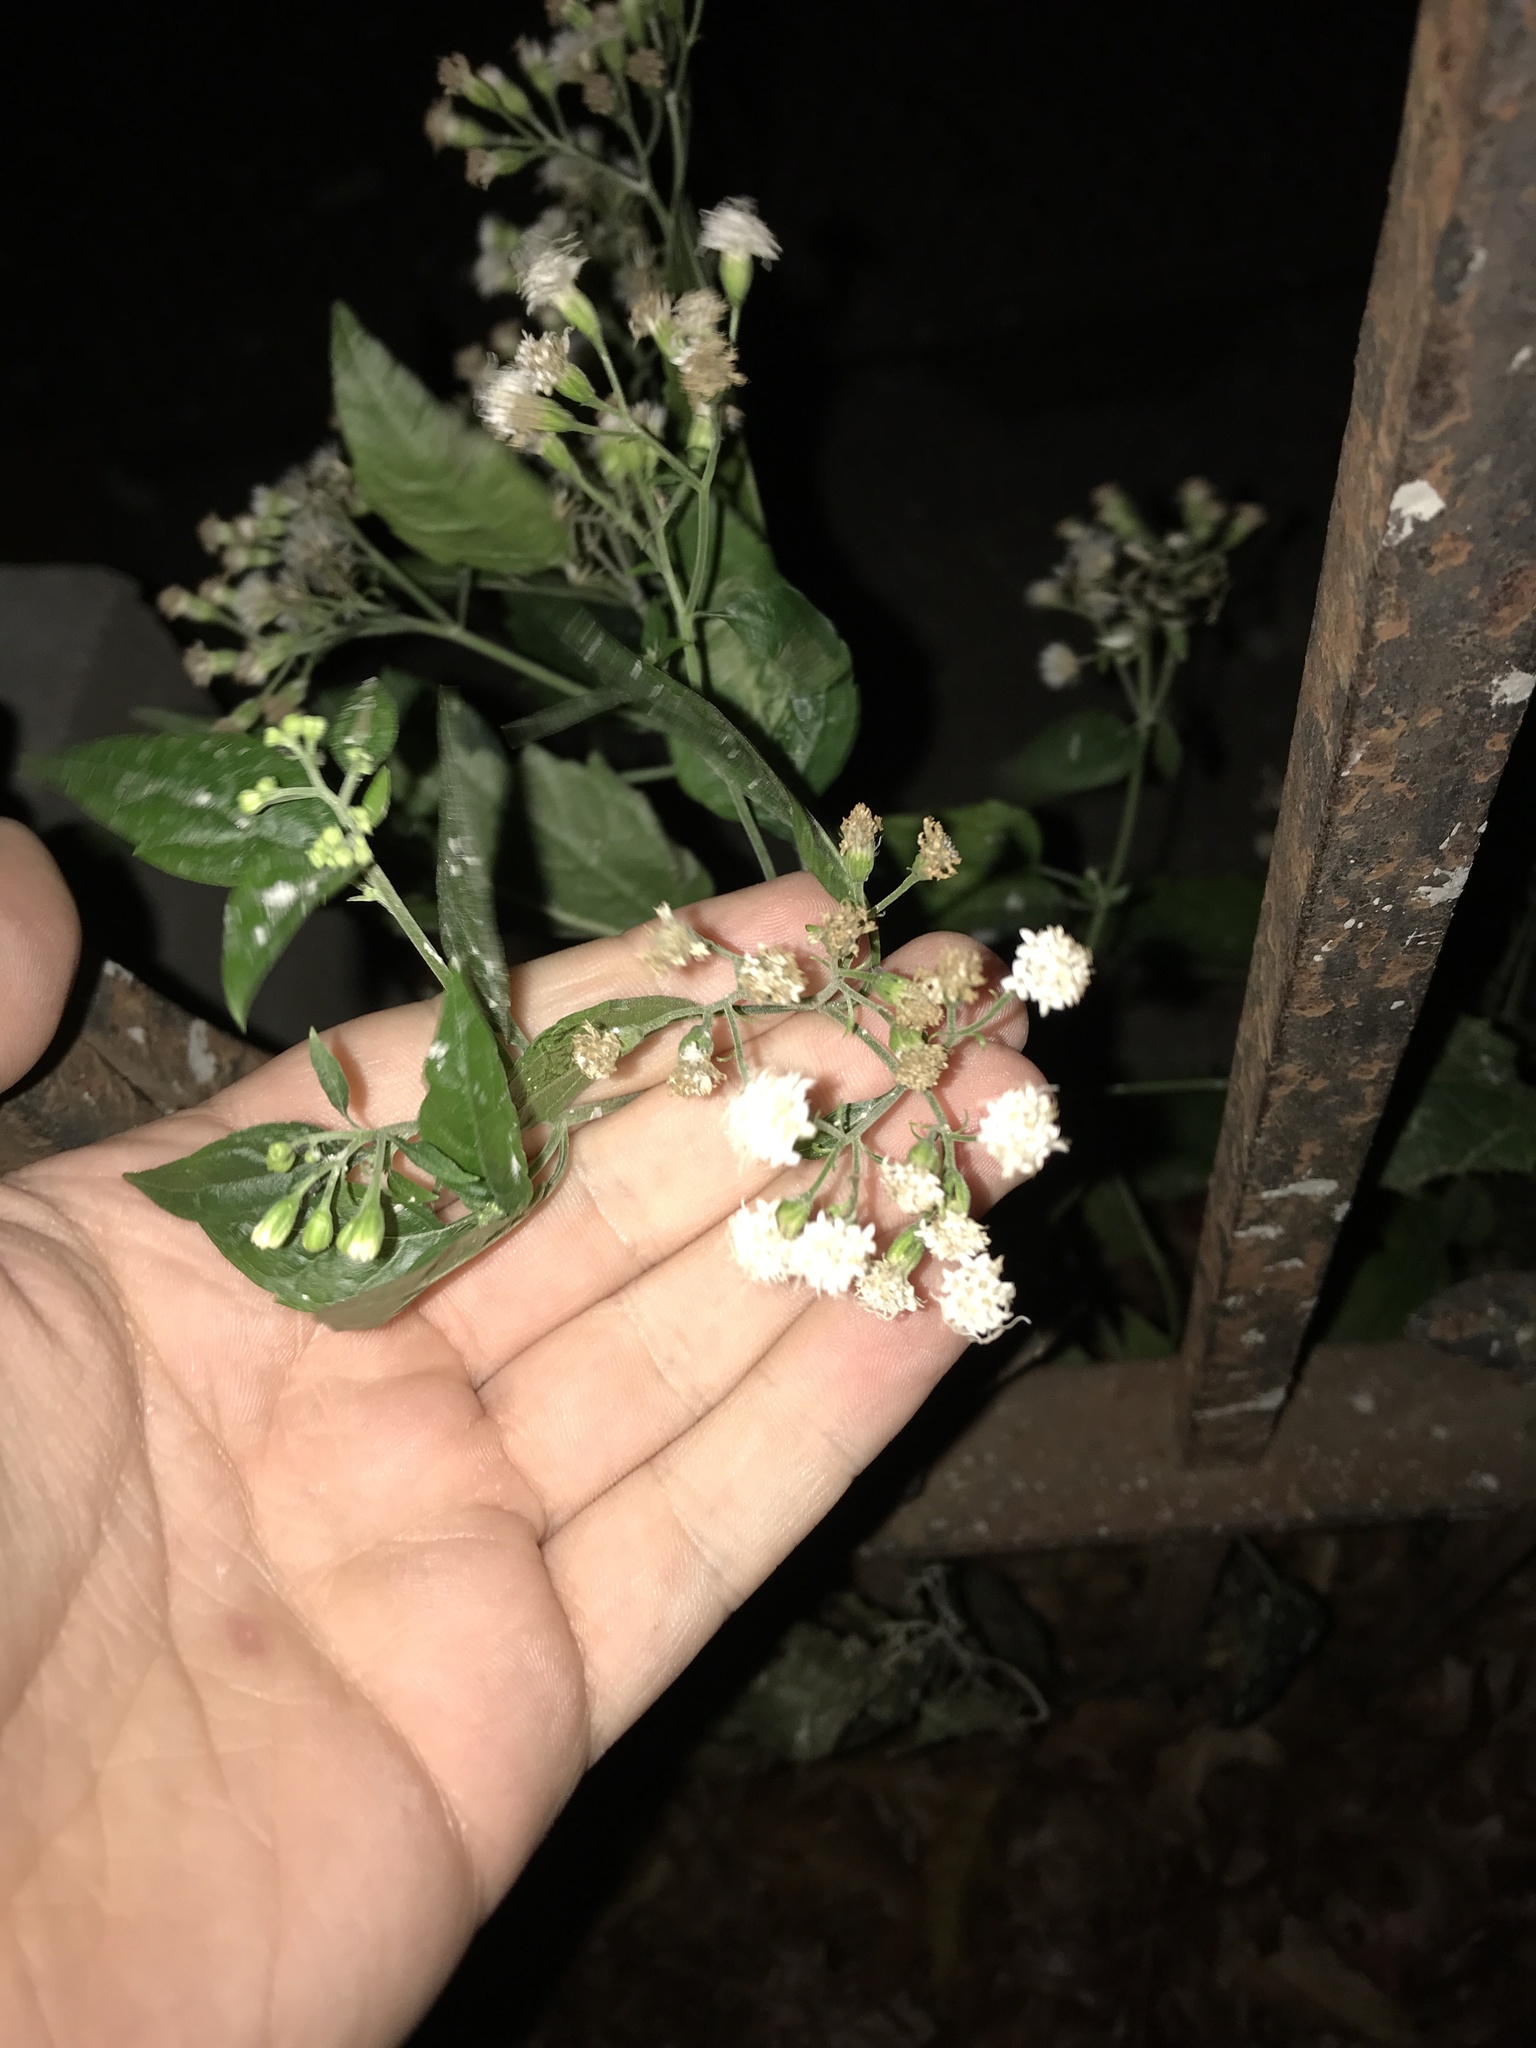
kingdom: Plantae
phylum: Tracheophyta
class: Magnoliopsida
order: Asterales
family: Asteraceae
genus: Ageratina
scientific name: Ageratina altissima
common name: White snakeroot
